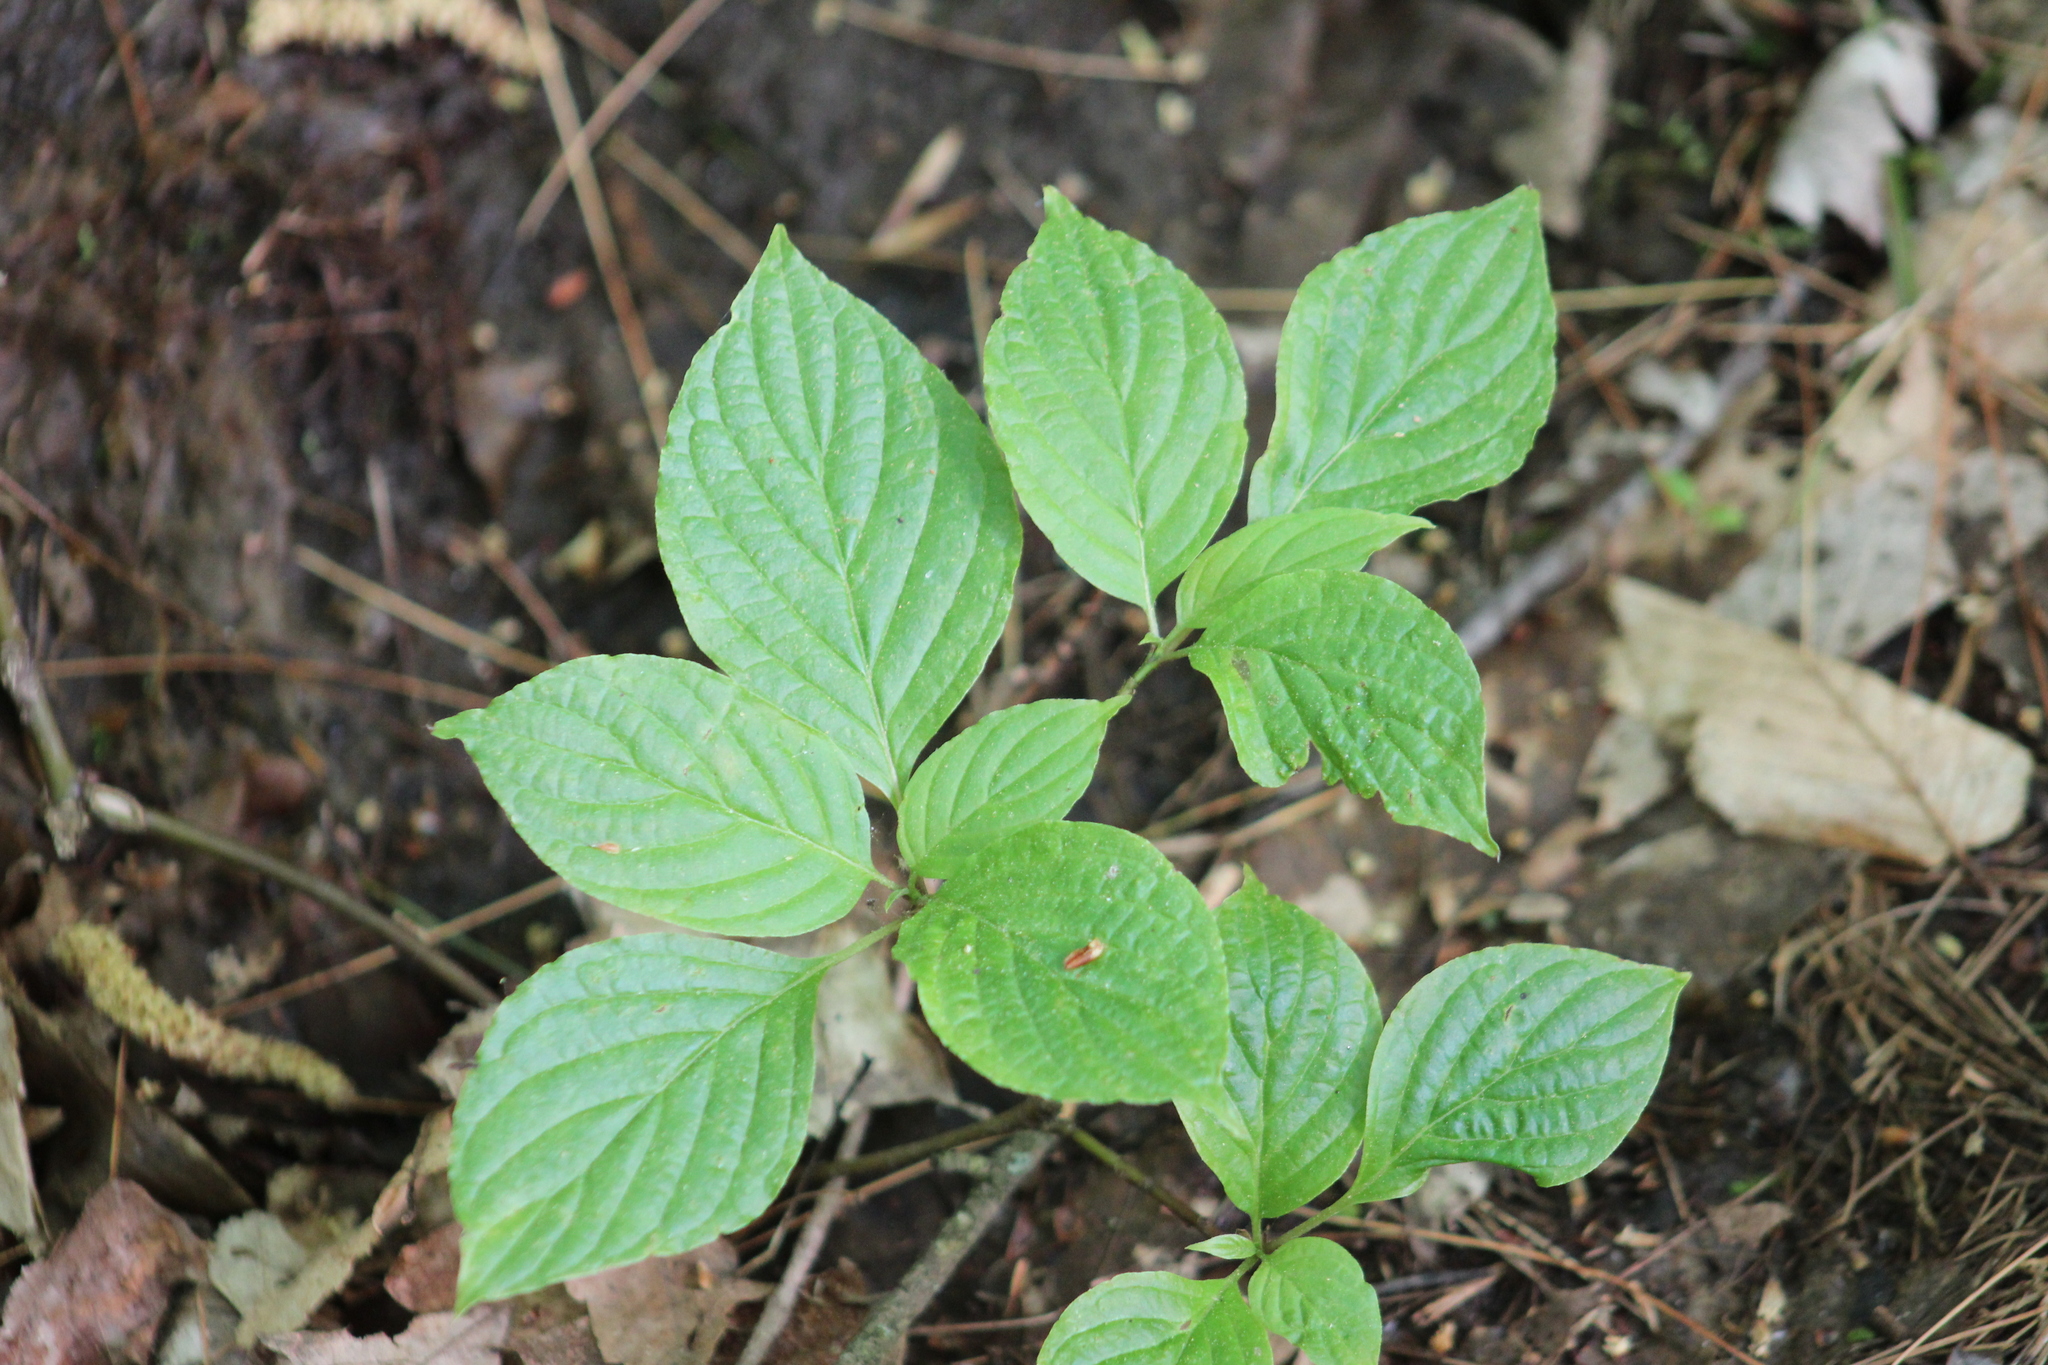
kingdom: Plantae
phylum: Tracheophyta
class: Magnoliopsida
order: Cornales
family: Cornaceae
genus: Cornus
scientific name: Cornus alternifolia
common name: Pagoda dogwood
